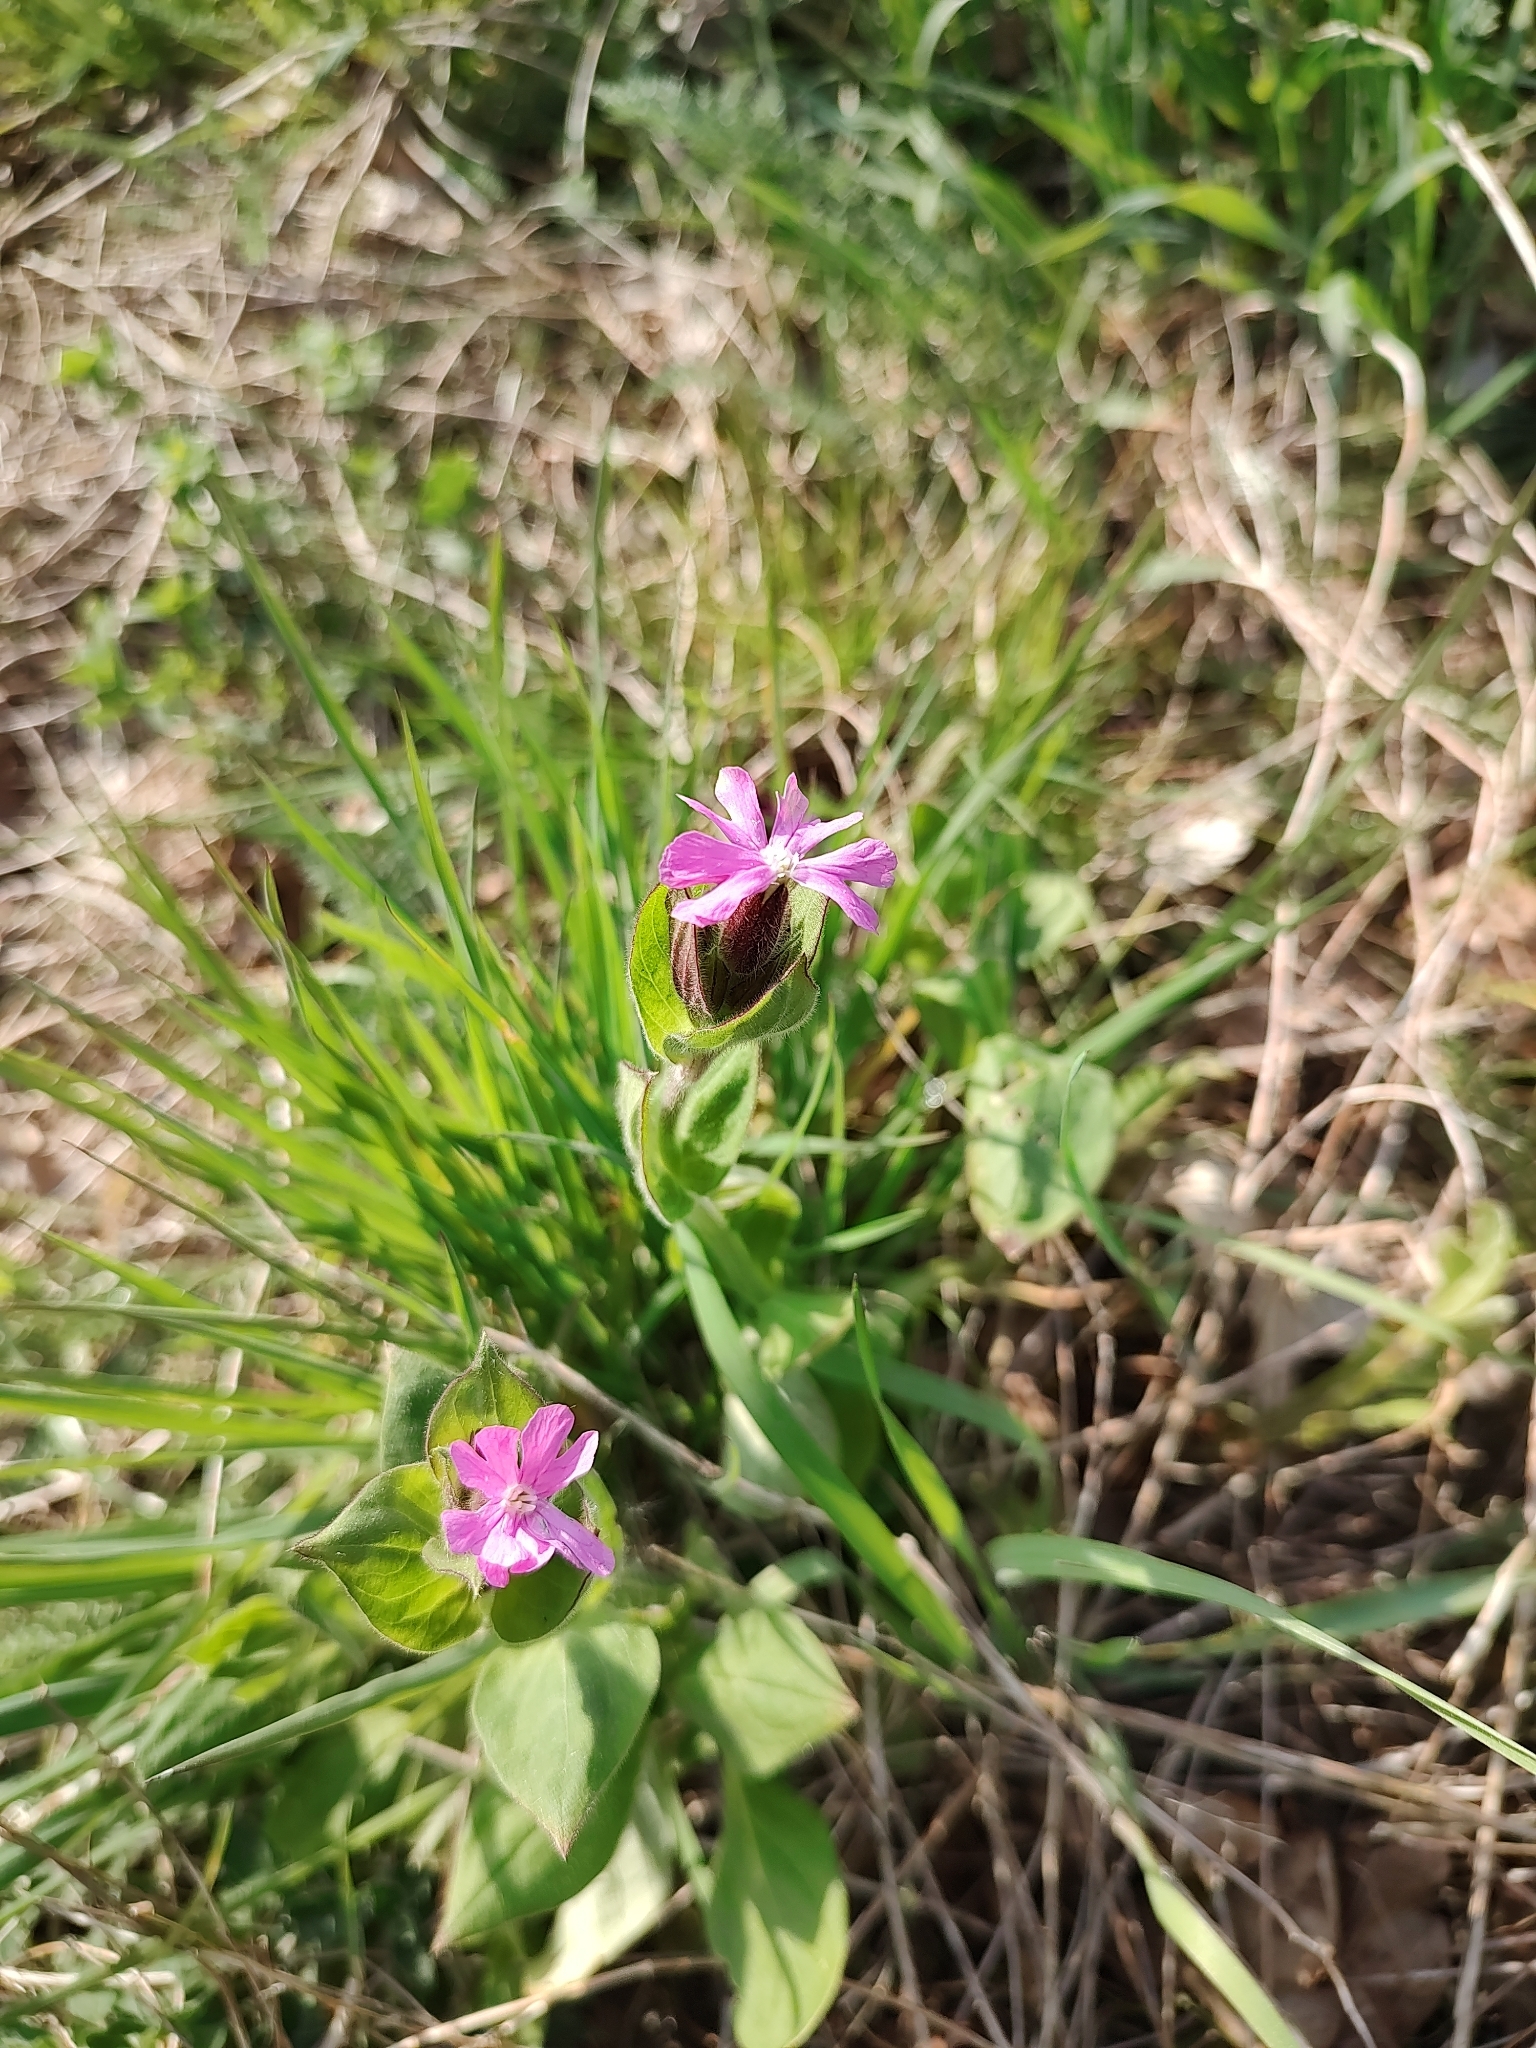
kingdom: Plantae
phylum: Tracheophyta
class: Magnoliopsida
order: Caryophyllales
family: Caryophyllaceae
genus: Silene
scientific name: Silene dioica
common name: Red campion
